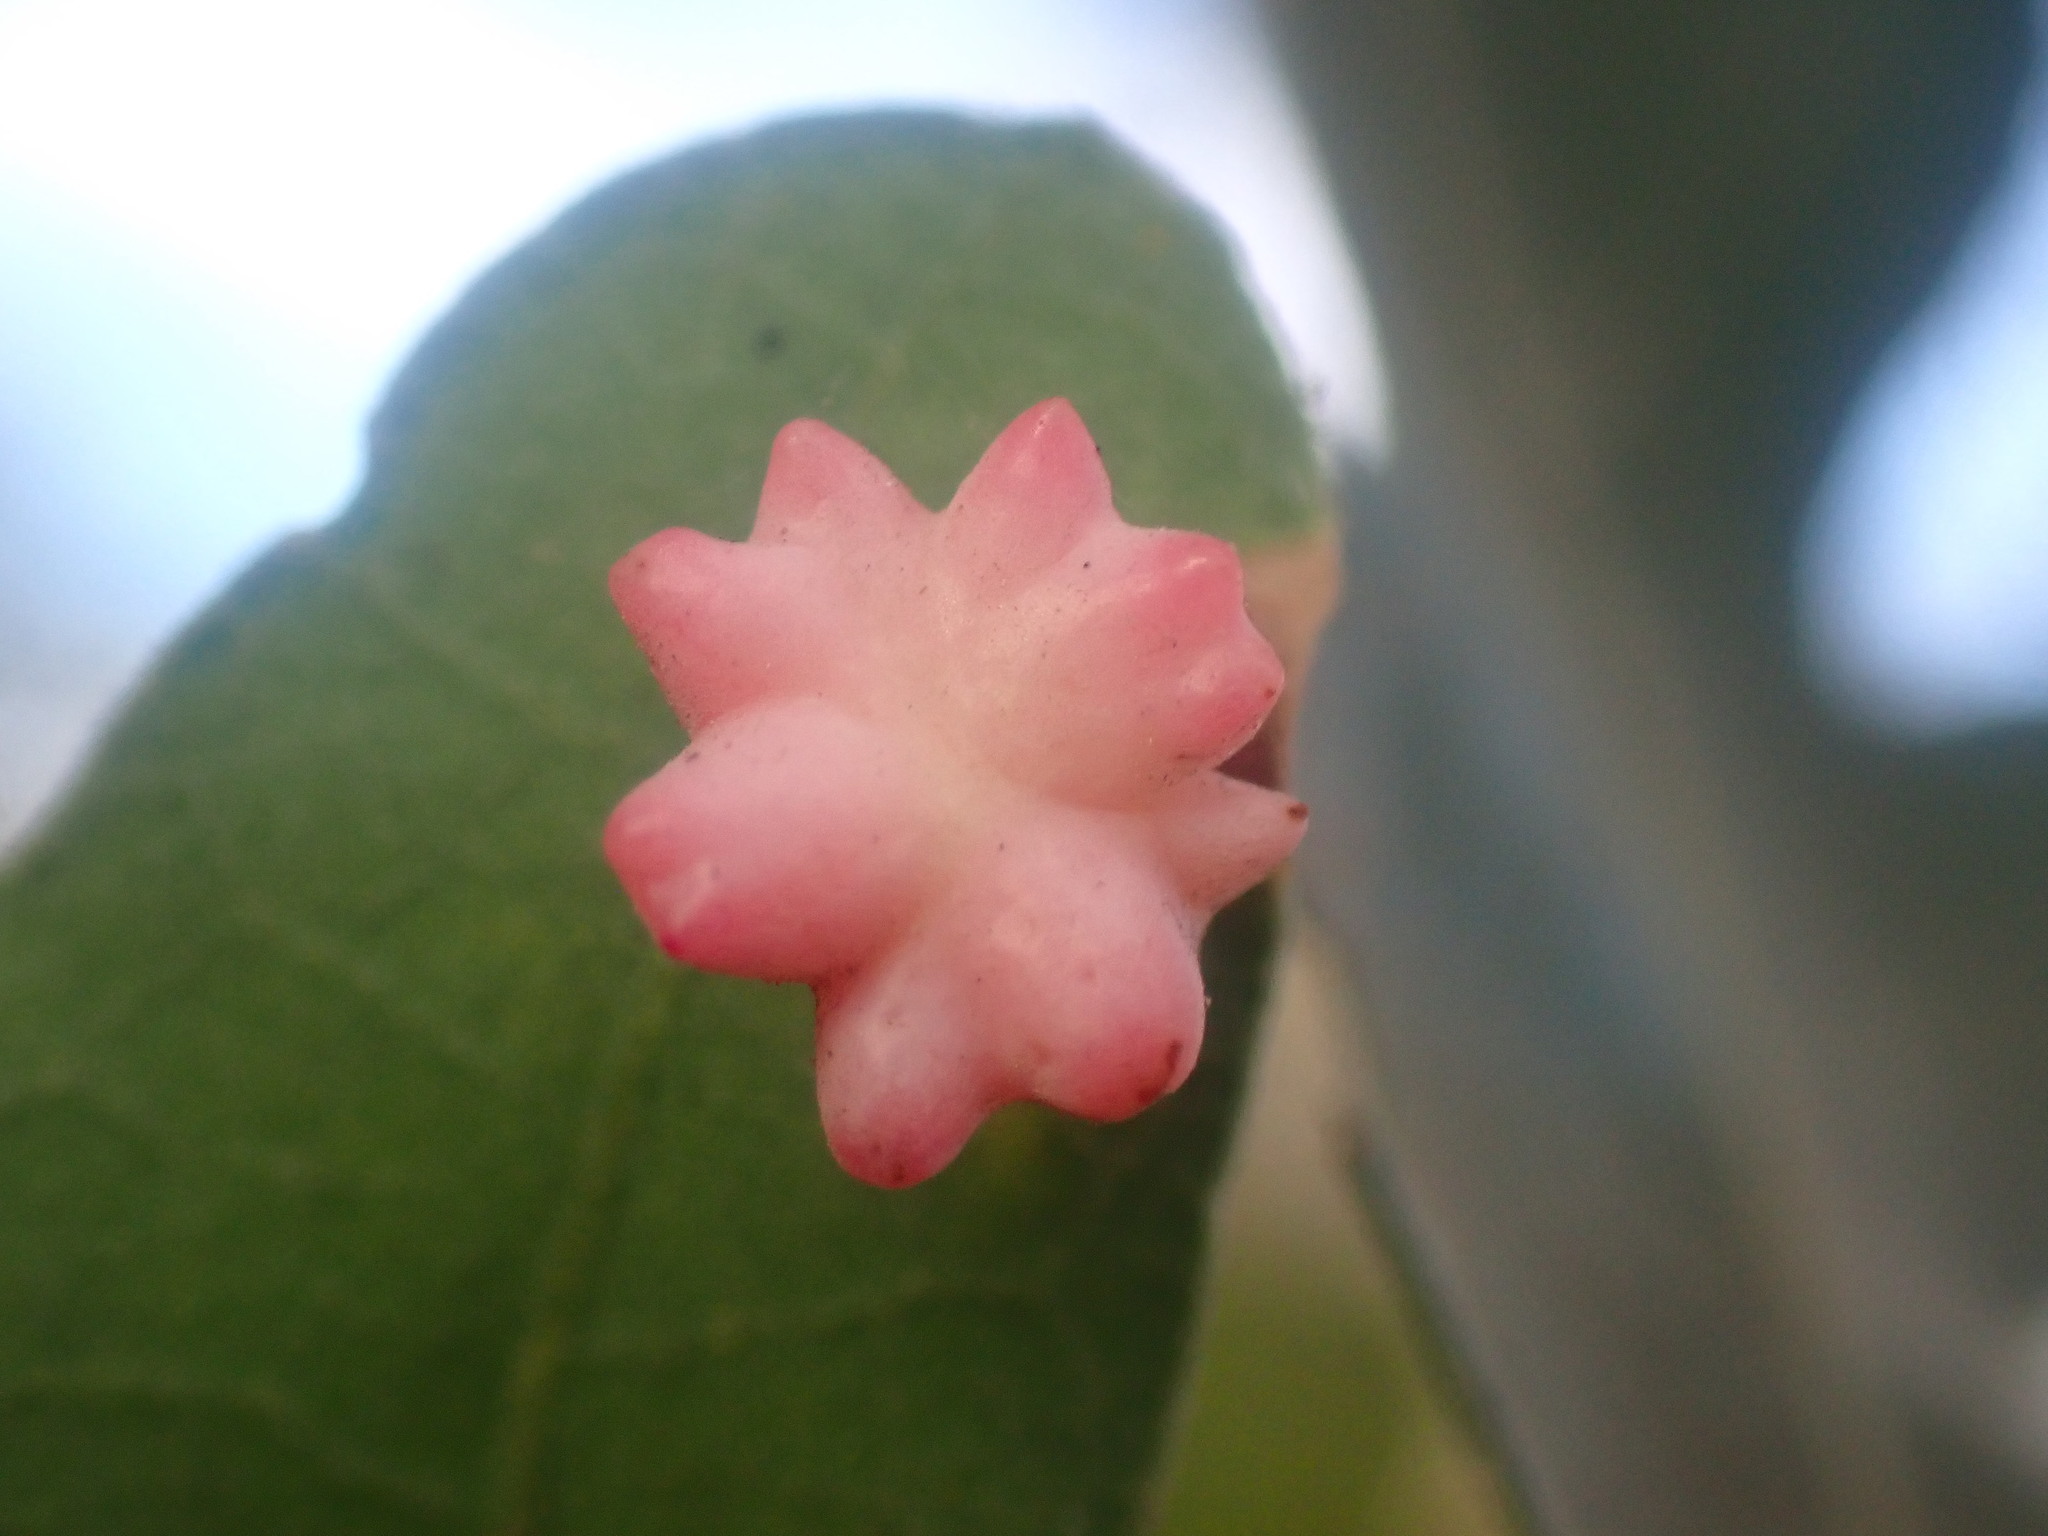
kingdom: Animalia
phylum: Arthropoda
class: Insecta
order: Hymenoptera
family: Cynipidae
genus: Cynips
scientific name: Cynips douglasi
